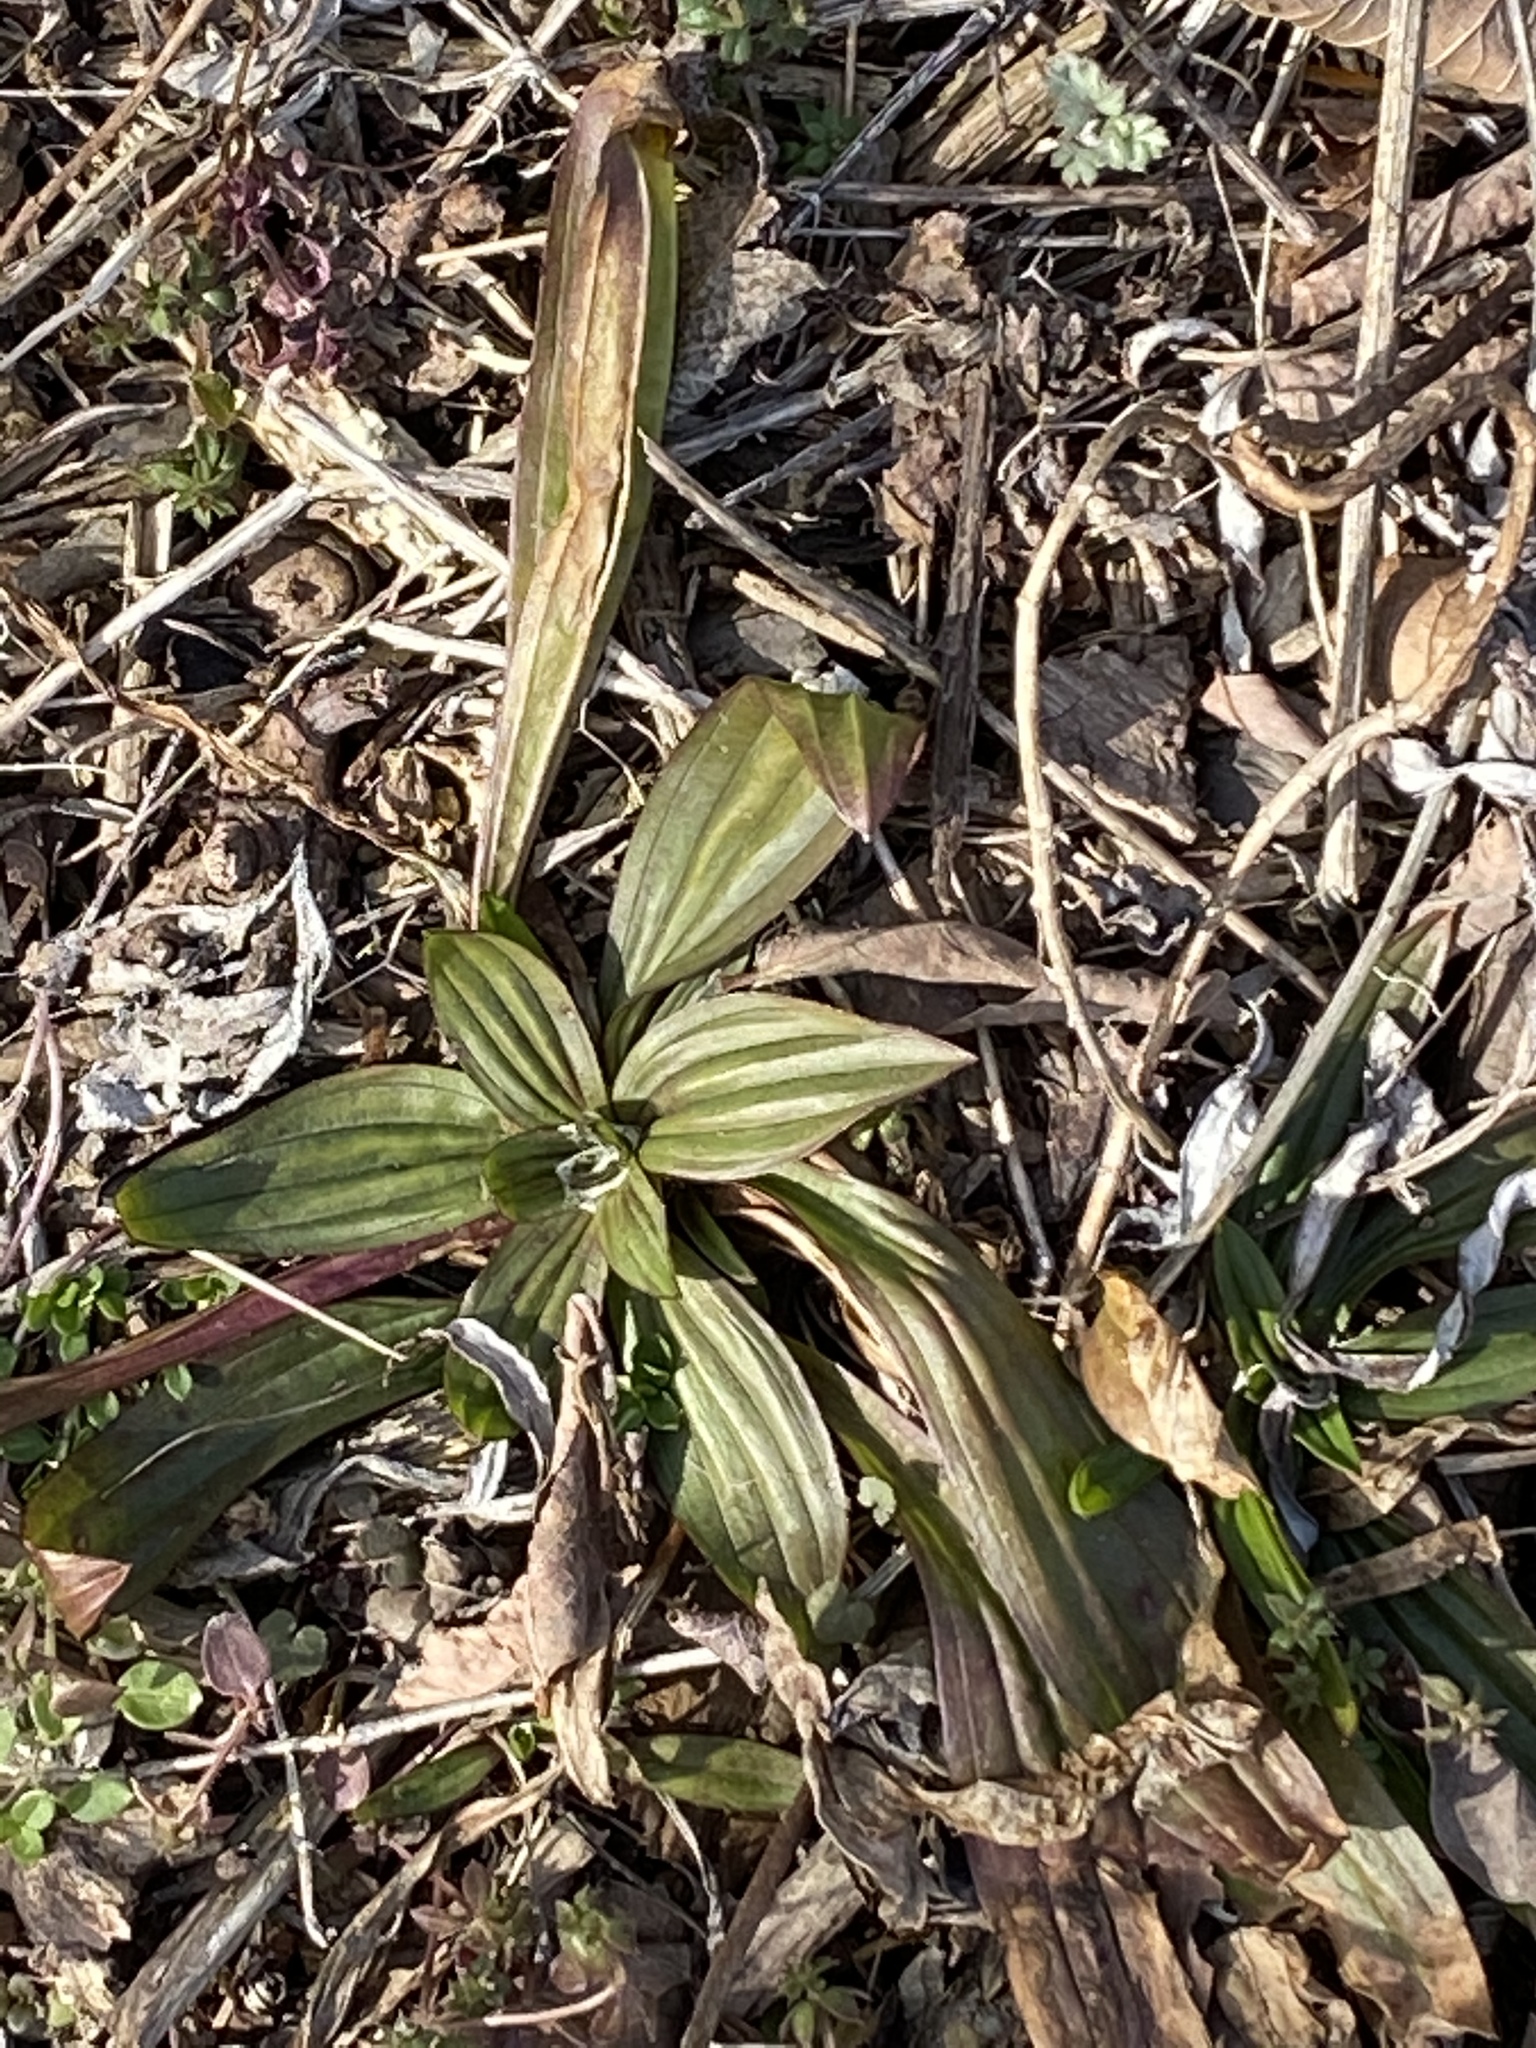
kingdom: Plantae
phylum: Tracheophyta
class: Magnoliopsida
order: Lamiales
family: Plantaginaceae
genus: Plantago
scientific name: Plantago lanceolata
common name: Ribwort plantain
